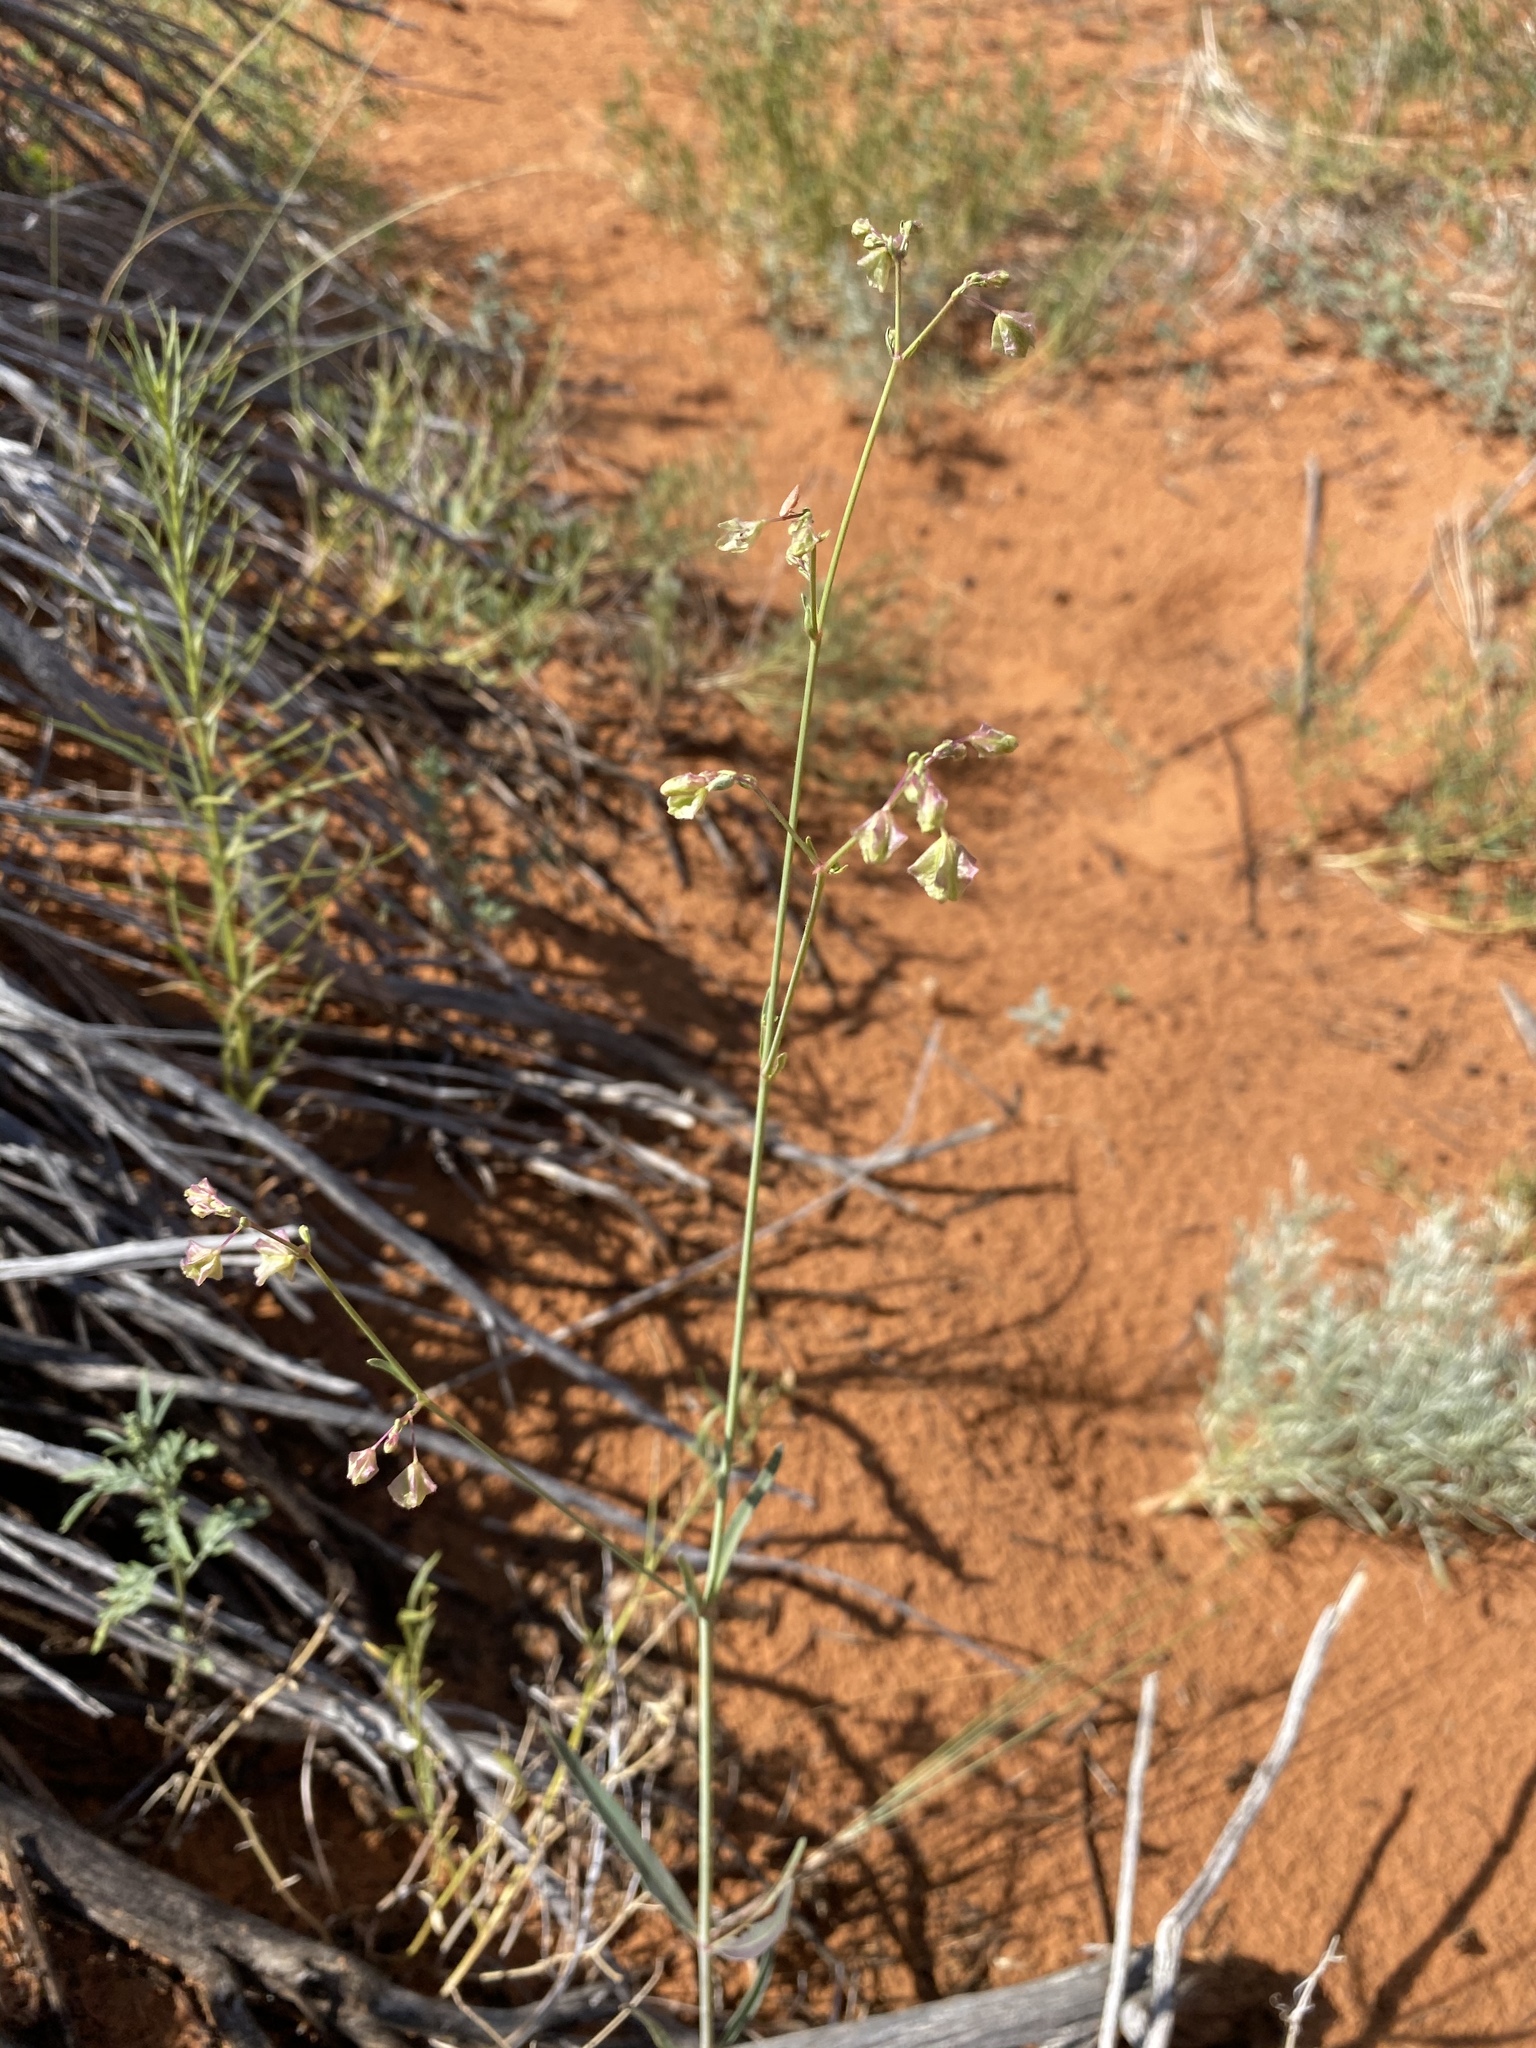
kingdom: Plantae
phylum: Tracheophyta
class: Magnoliopsida
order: Caryophyllales
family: Nyctaginaceae
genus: Mirabilis
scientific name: Mirabilis linearis
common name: Linear-leaved four-o'clock
